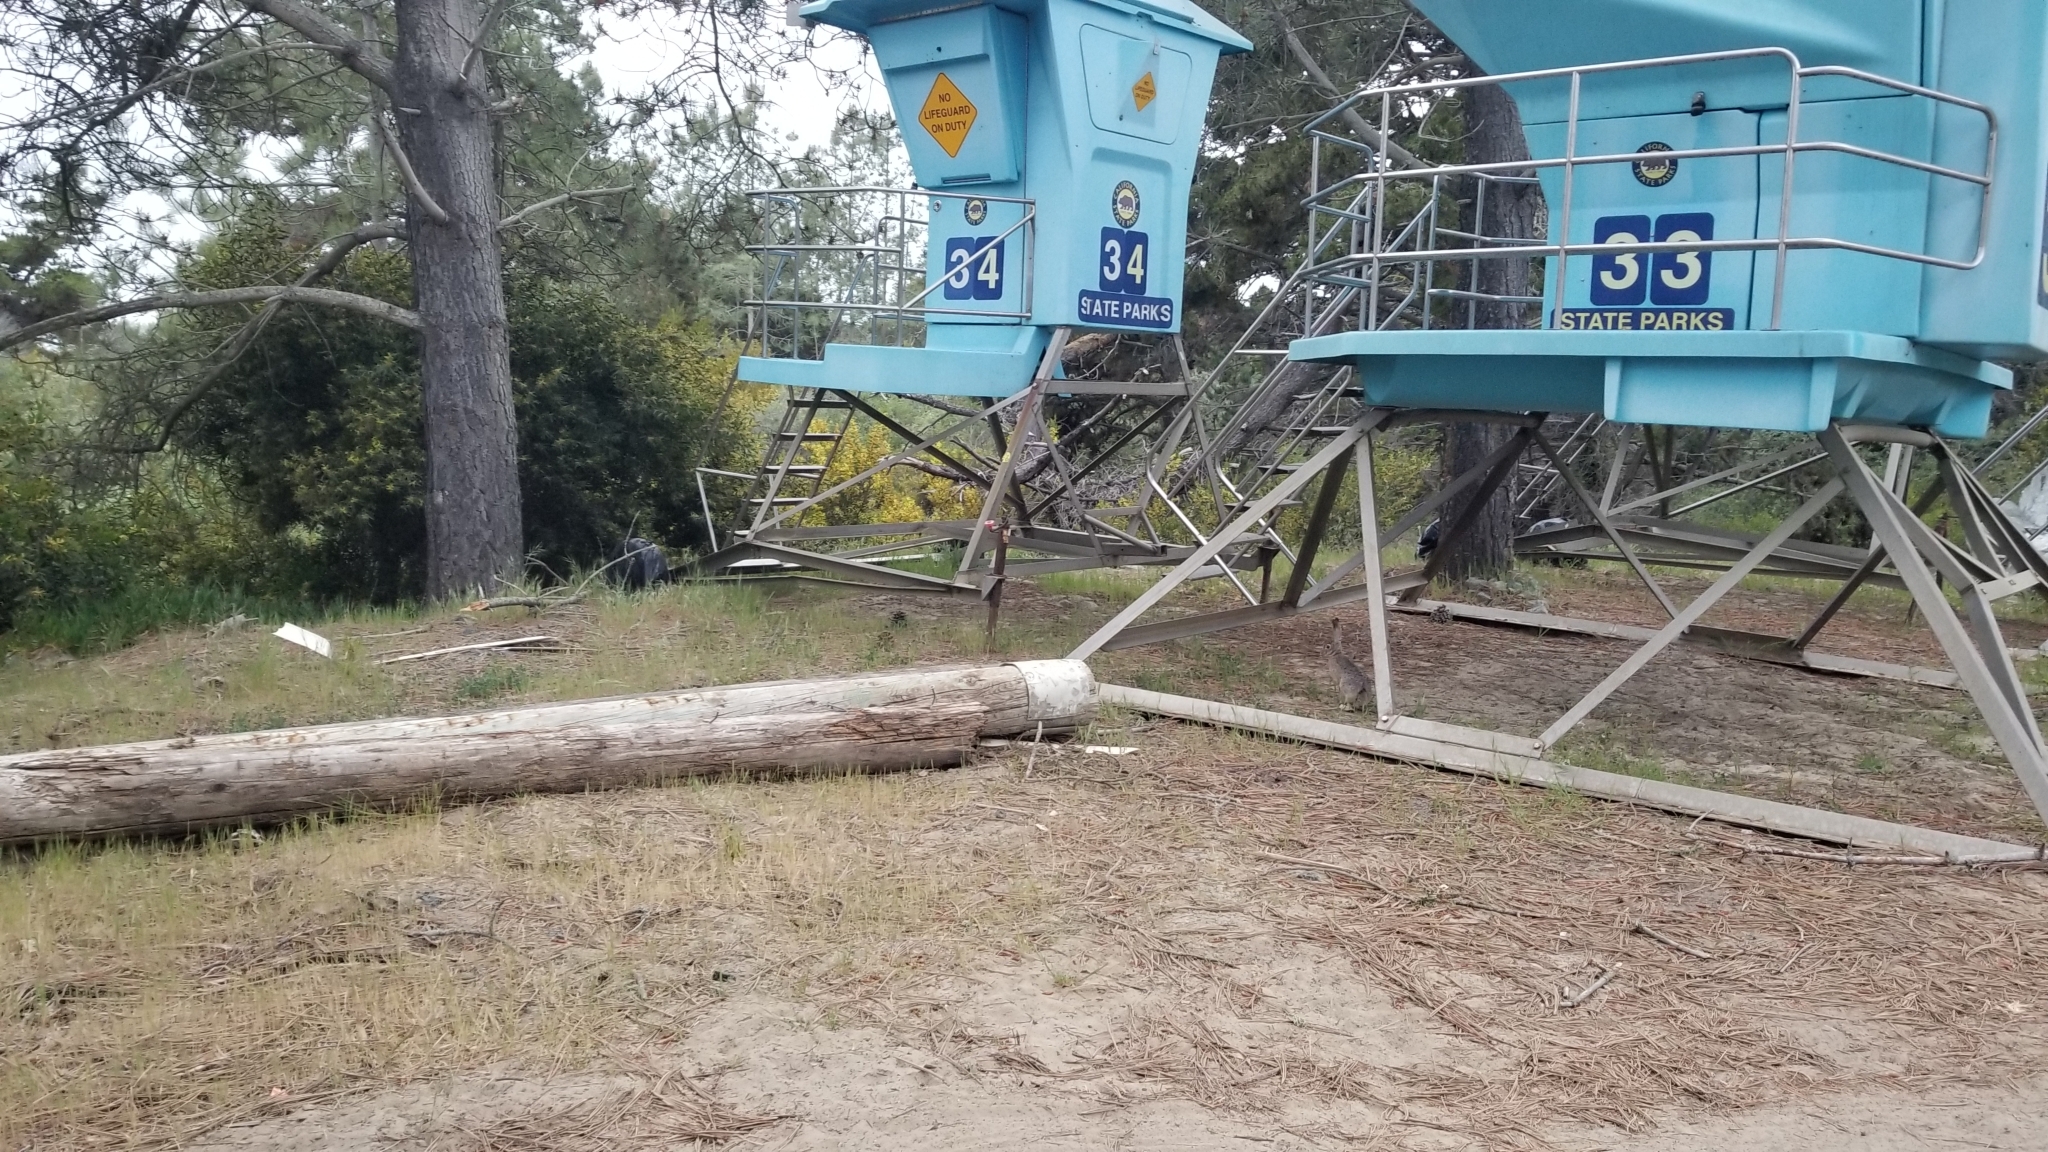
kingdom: Animalia
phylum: Chordata
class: Mammalia
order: Lagomorpha
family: Leporidae
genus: Lepus
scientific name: Lepus californicus
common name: Black-tailed jackrabbit
